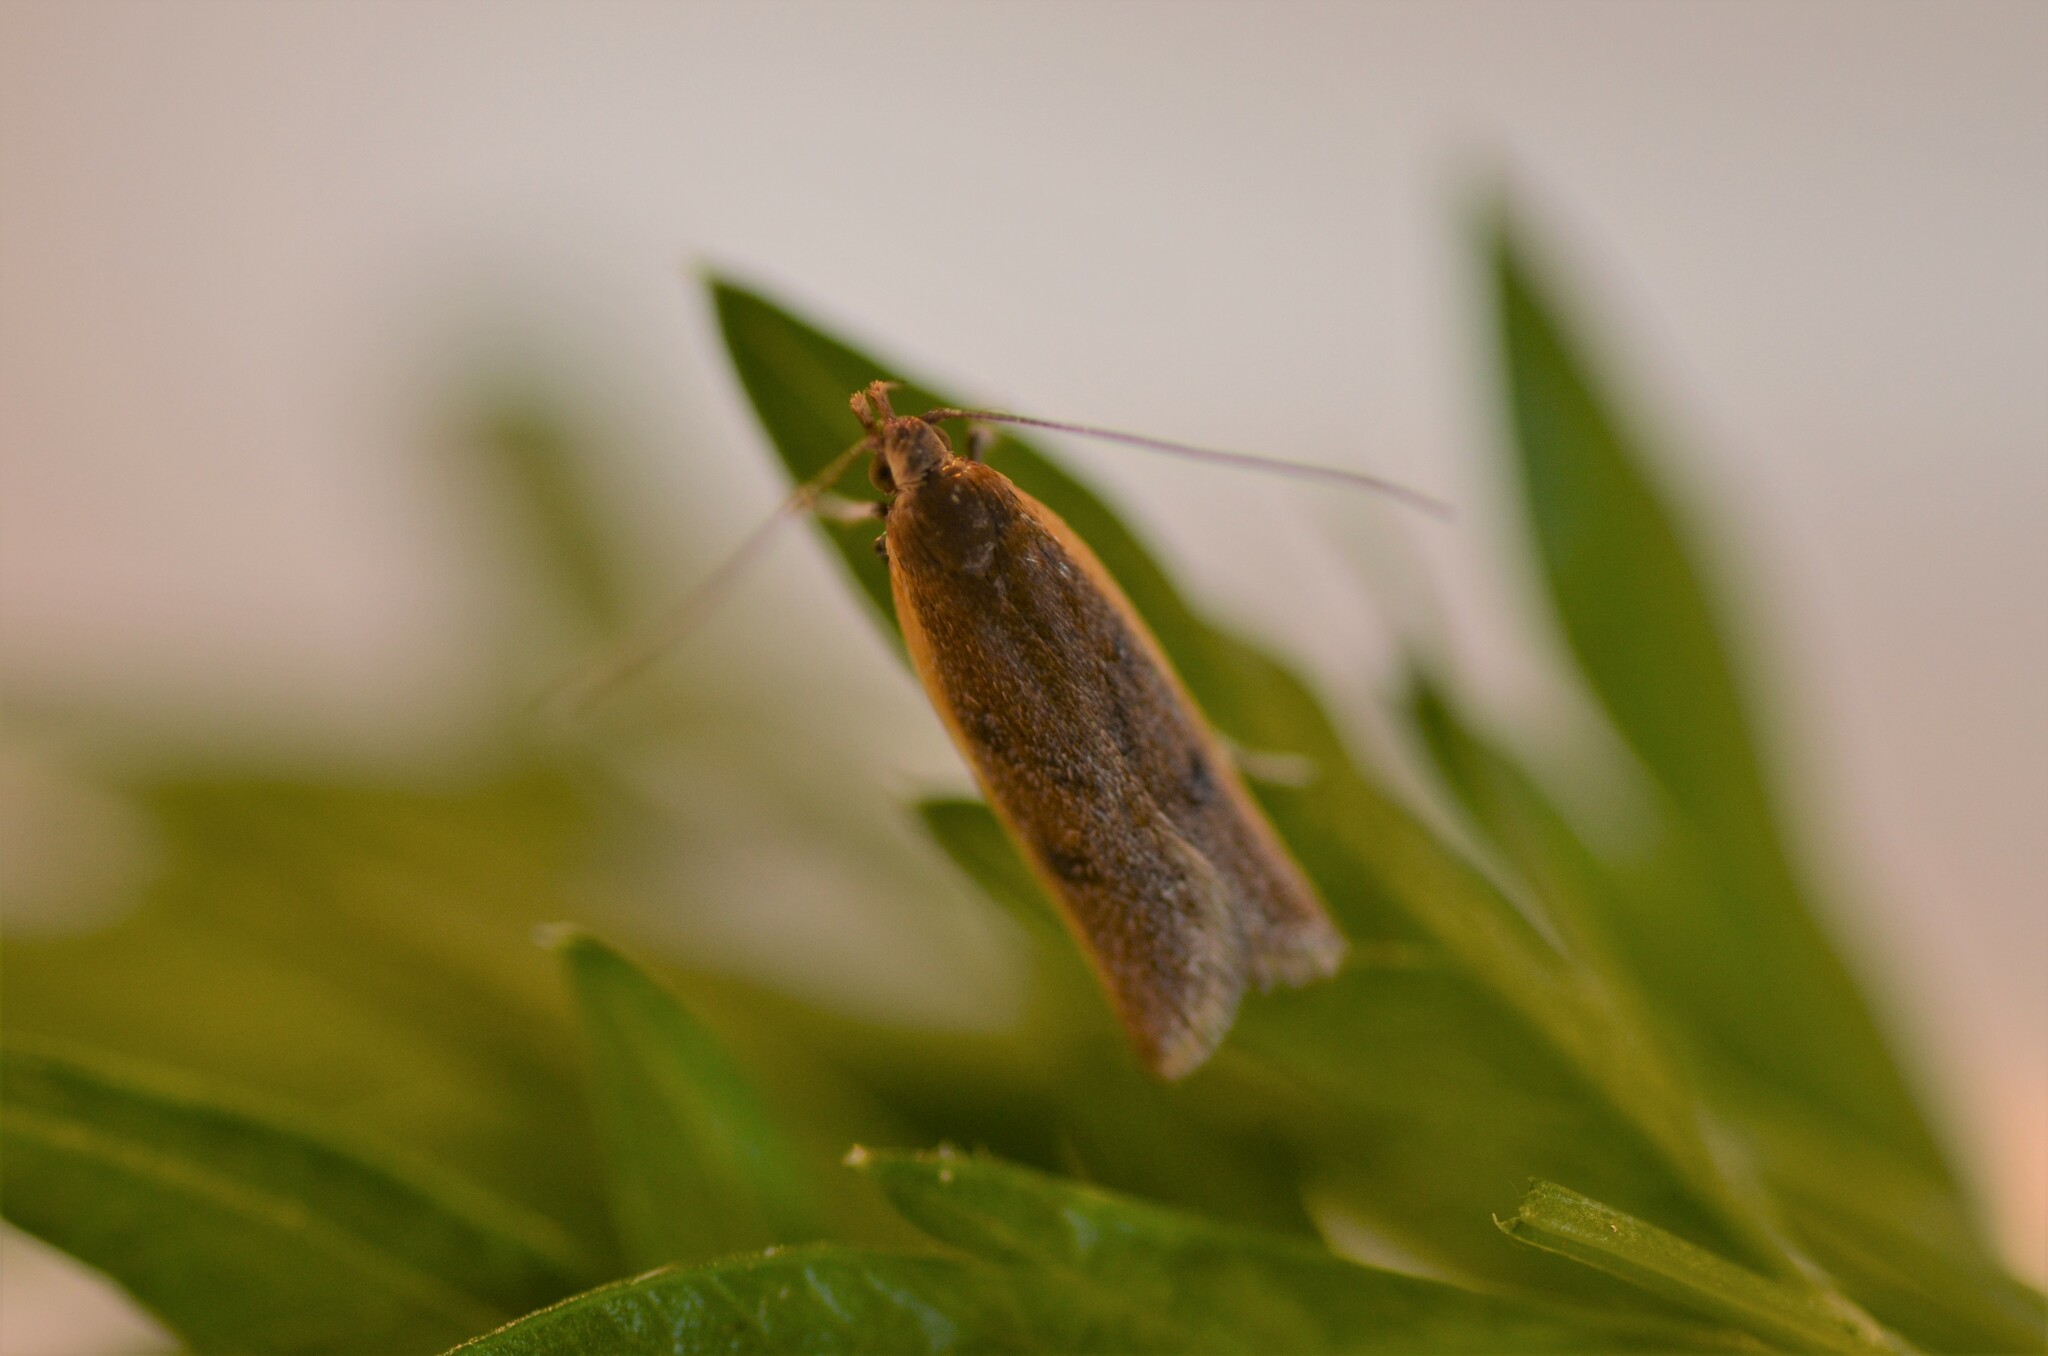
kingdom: Animalia
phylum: Arthropoda
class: Insecta
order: Lepidoptera
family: Oecophoridae
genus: Gymnobathra
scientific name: Gymnobathra parca
